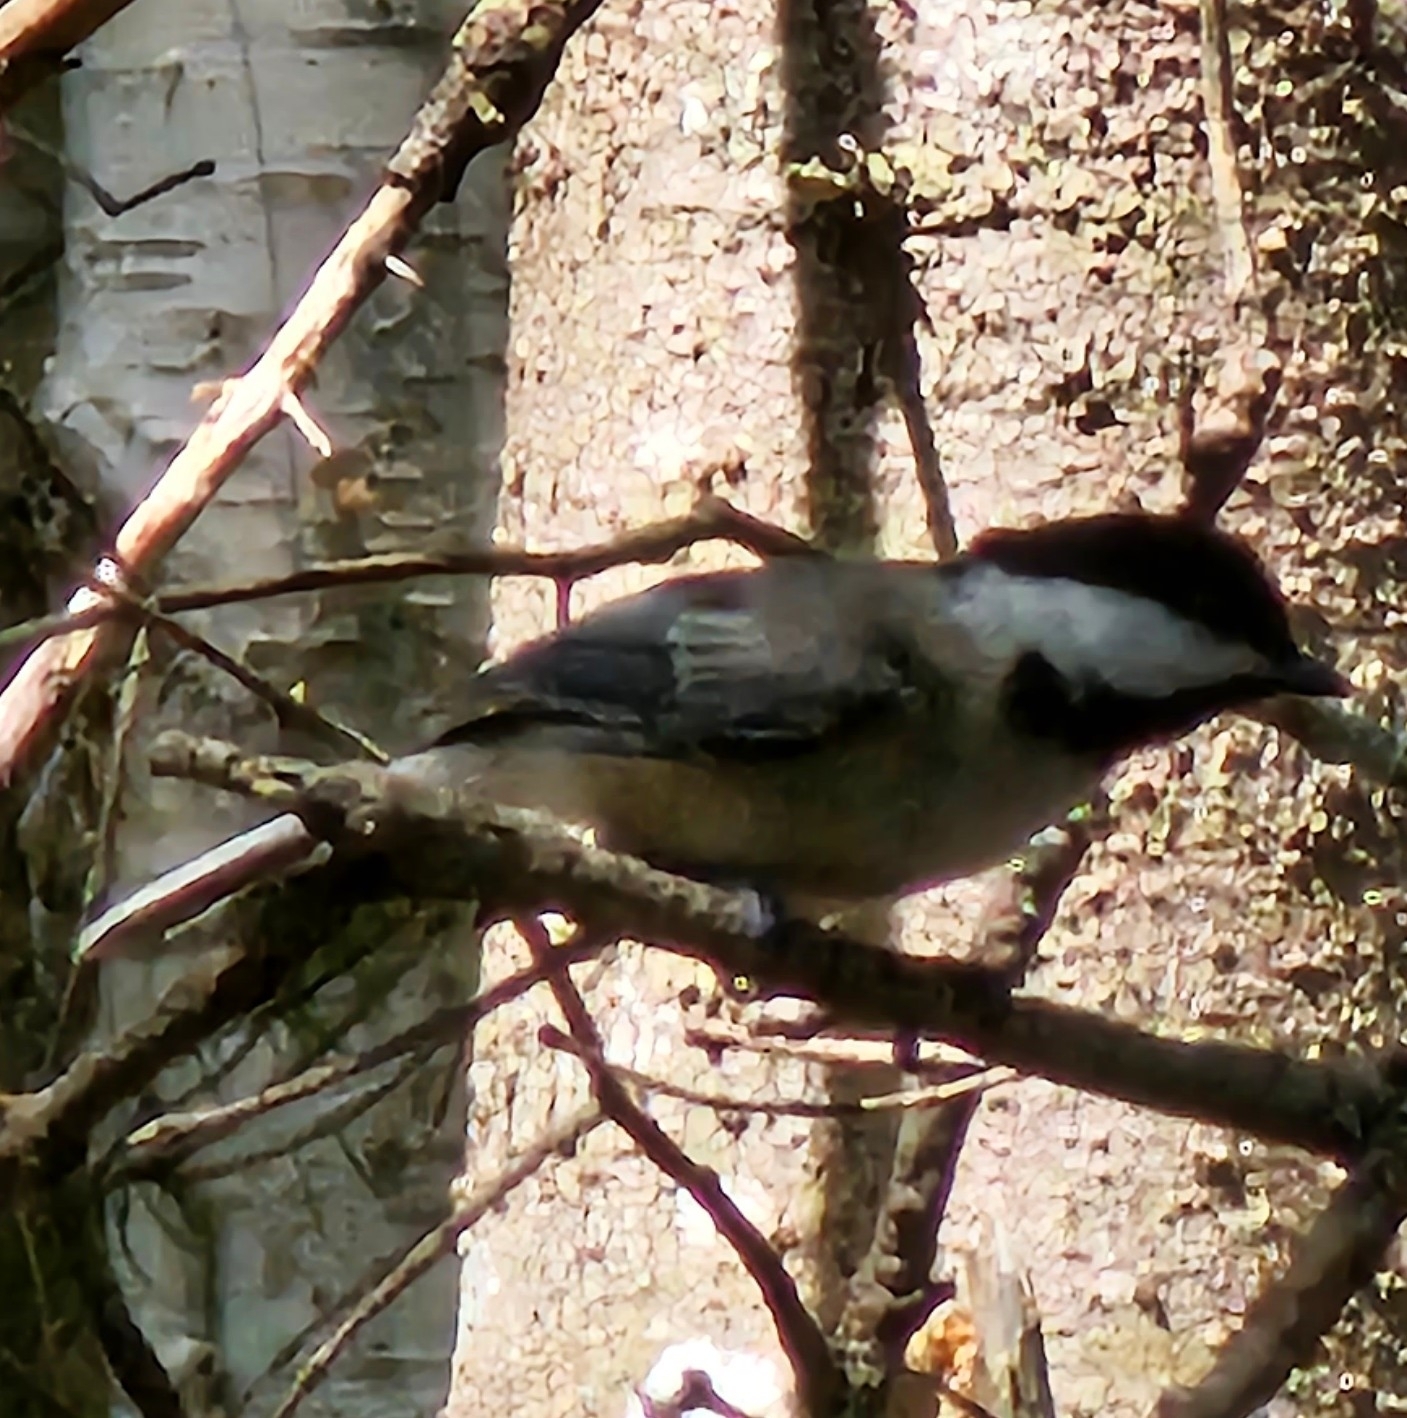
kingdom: Animalia
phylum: Chordata
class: Aves
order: Passeriformes
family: Paridae
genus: Poecile
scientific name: Poecile atricapillus
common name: Black-capped chickadee
